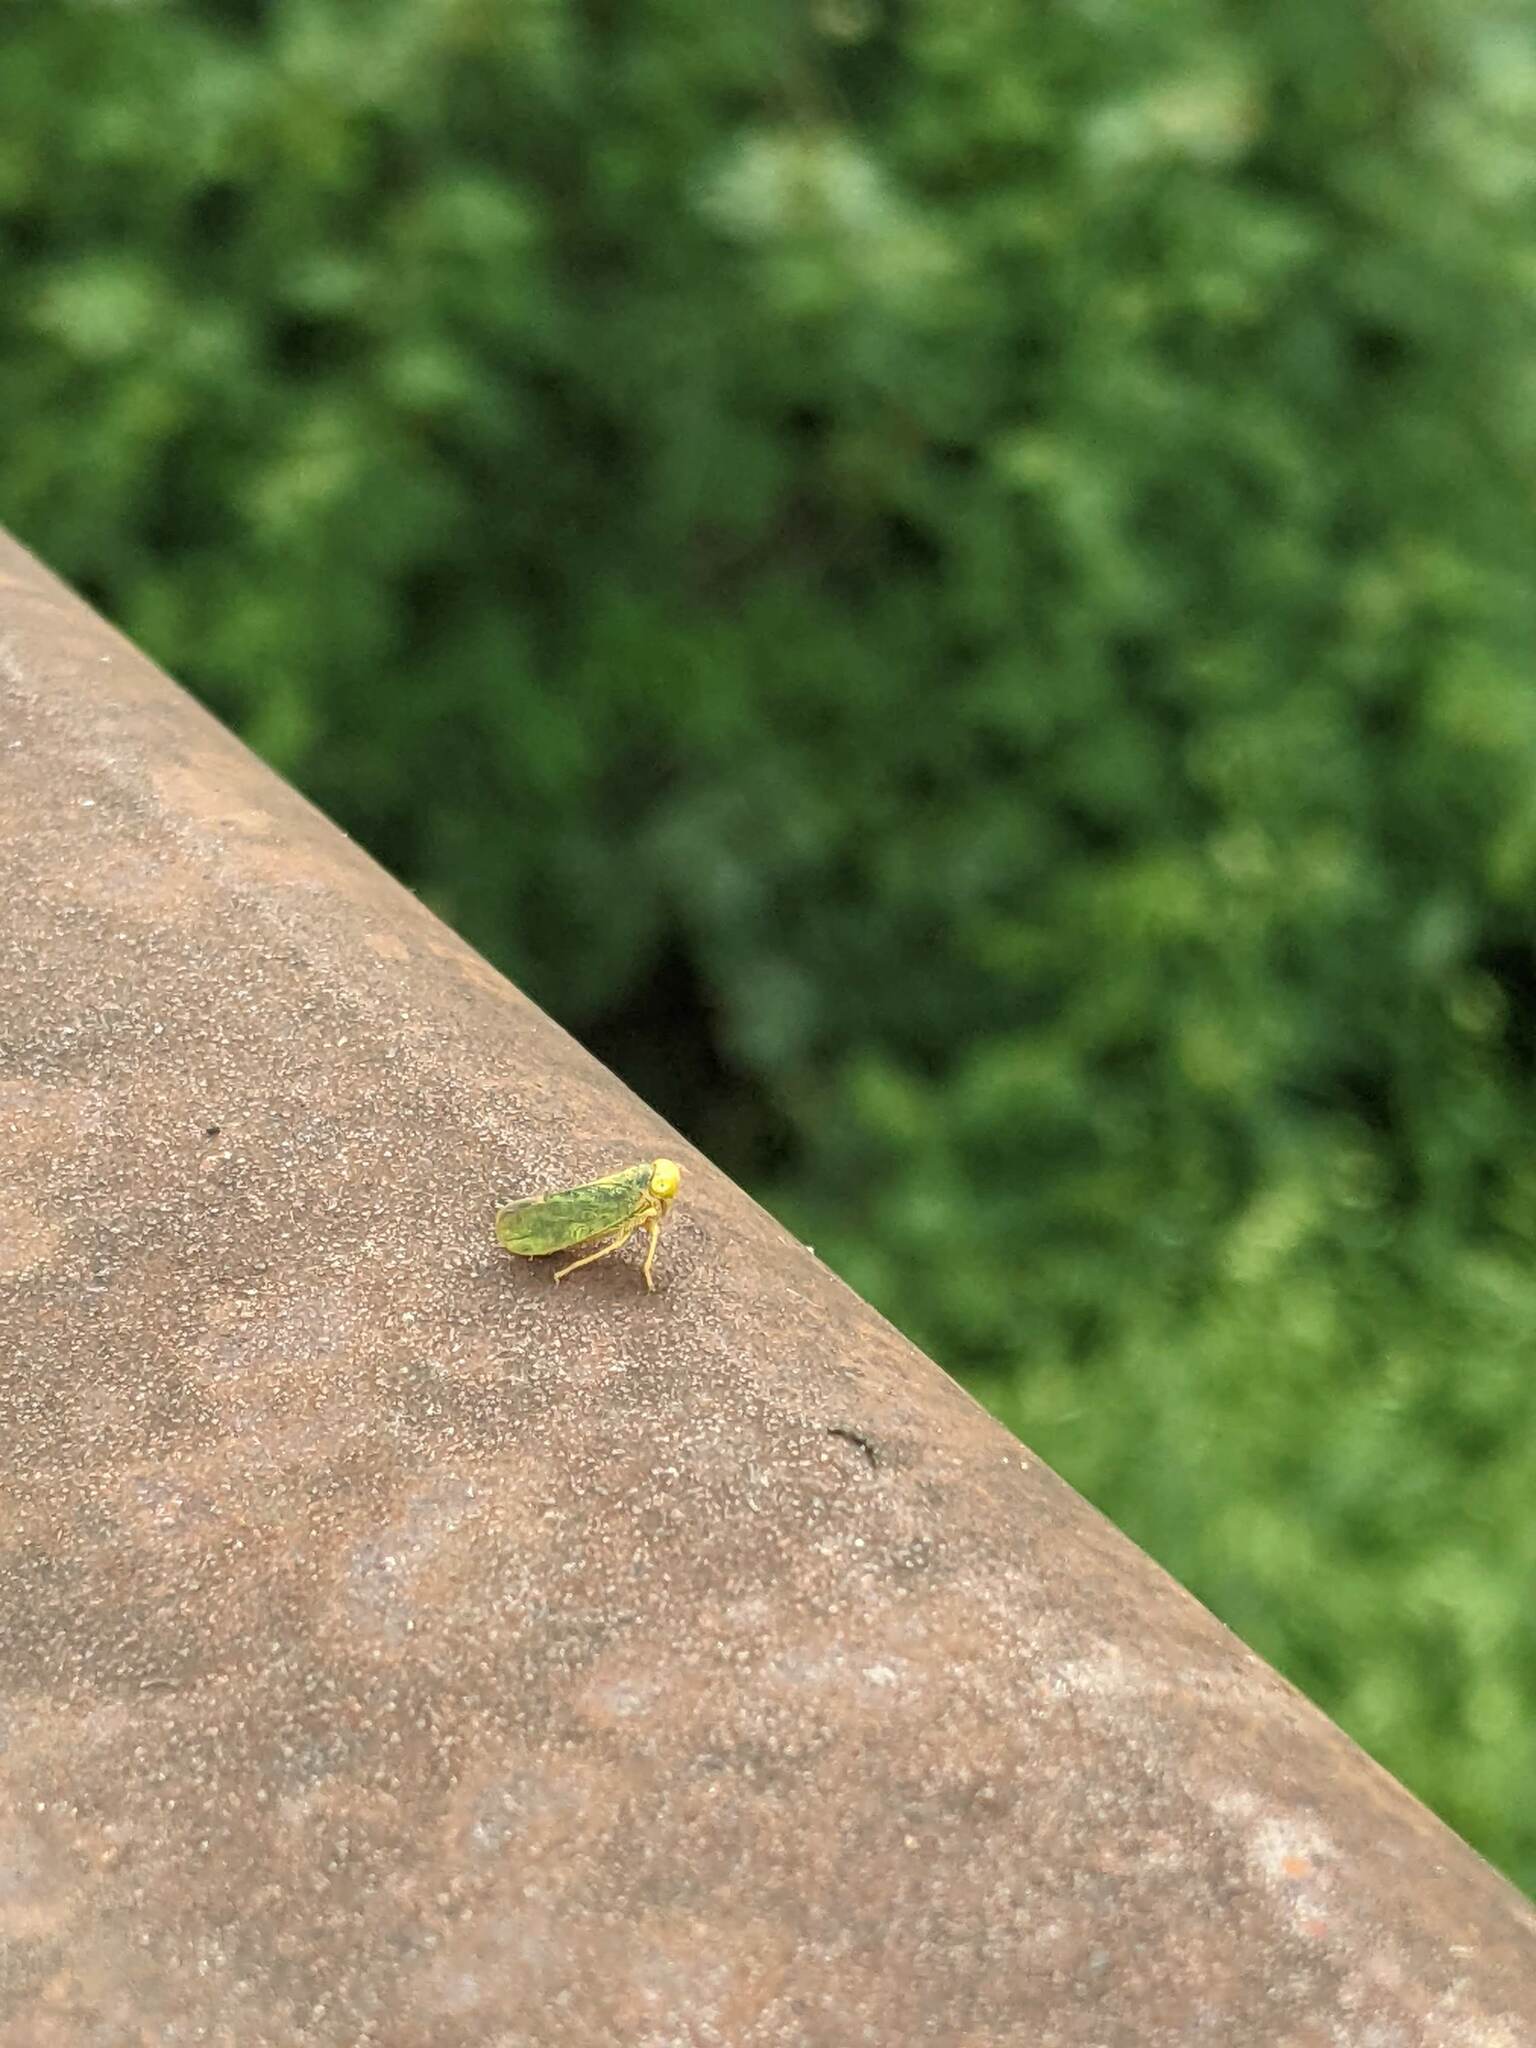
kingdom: Animalia
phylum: Arthropoda
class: Insecta
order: Hemiptera
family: Cicadellidae
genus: Jikradia
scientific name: Jikradia olitoria
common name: Coppery leafhopper
